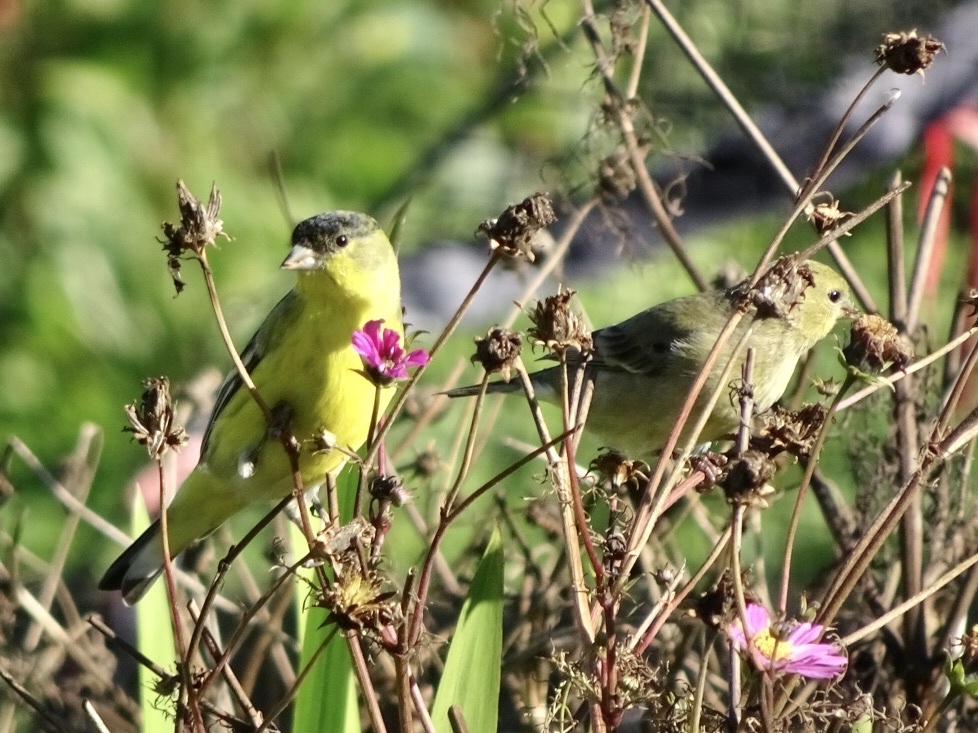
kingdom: Animalia
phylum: Chordata
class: Aves
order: Passeriformes
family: Fringillidae
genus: Spinus
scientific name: Spinus psaltria
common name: Lesser goldfinch
